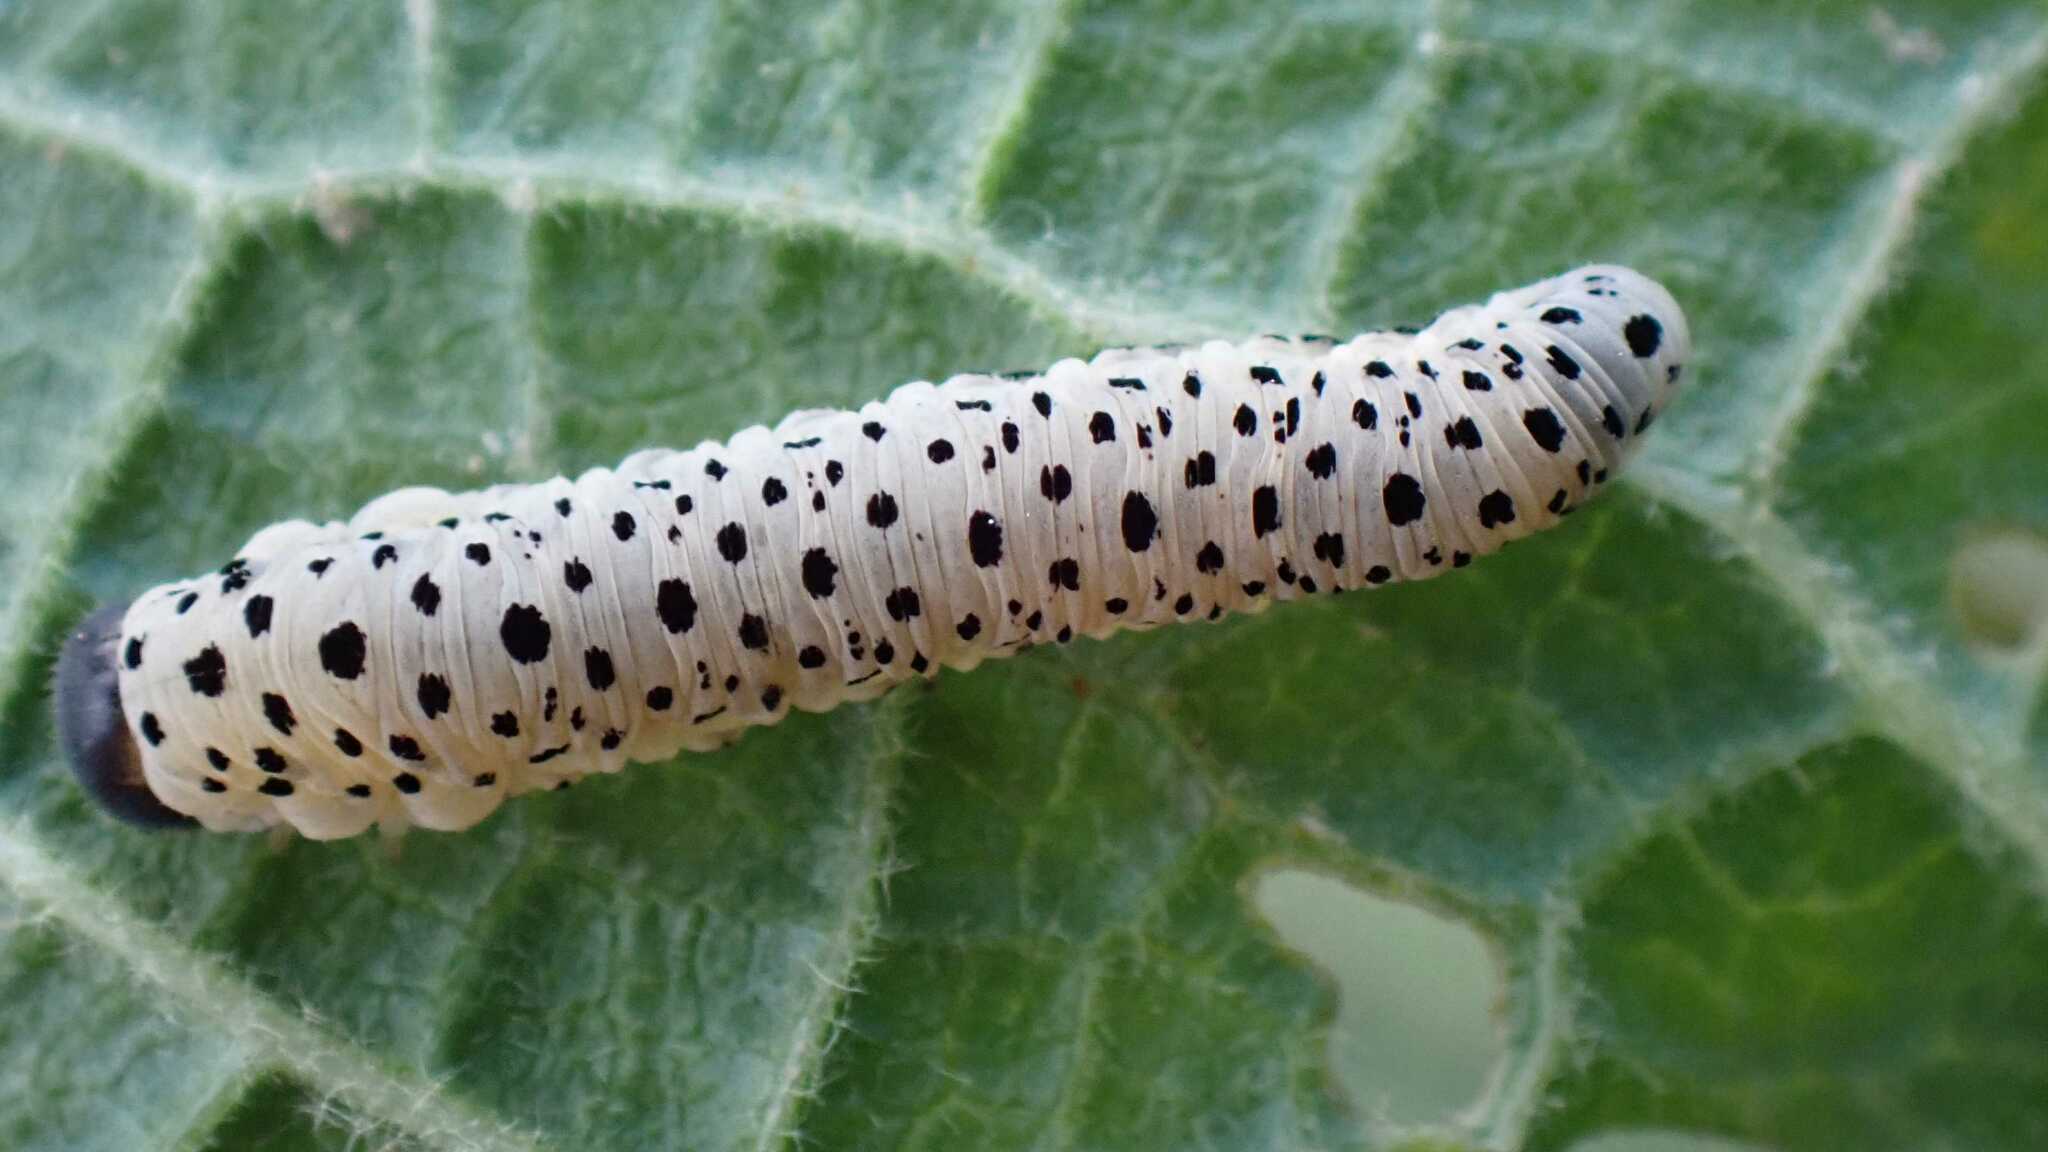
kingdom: Animalia
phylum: Arthropoda
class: Insecta
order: Hymenoptera
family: Tenthredinidae
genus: Tenthredo
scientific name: Tenthredo scrophulariae
